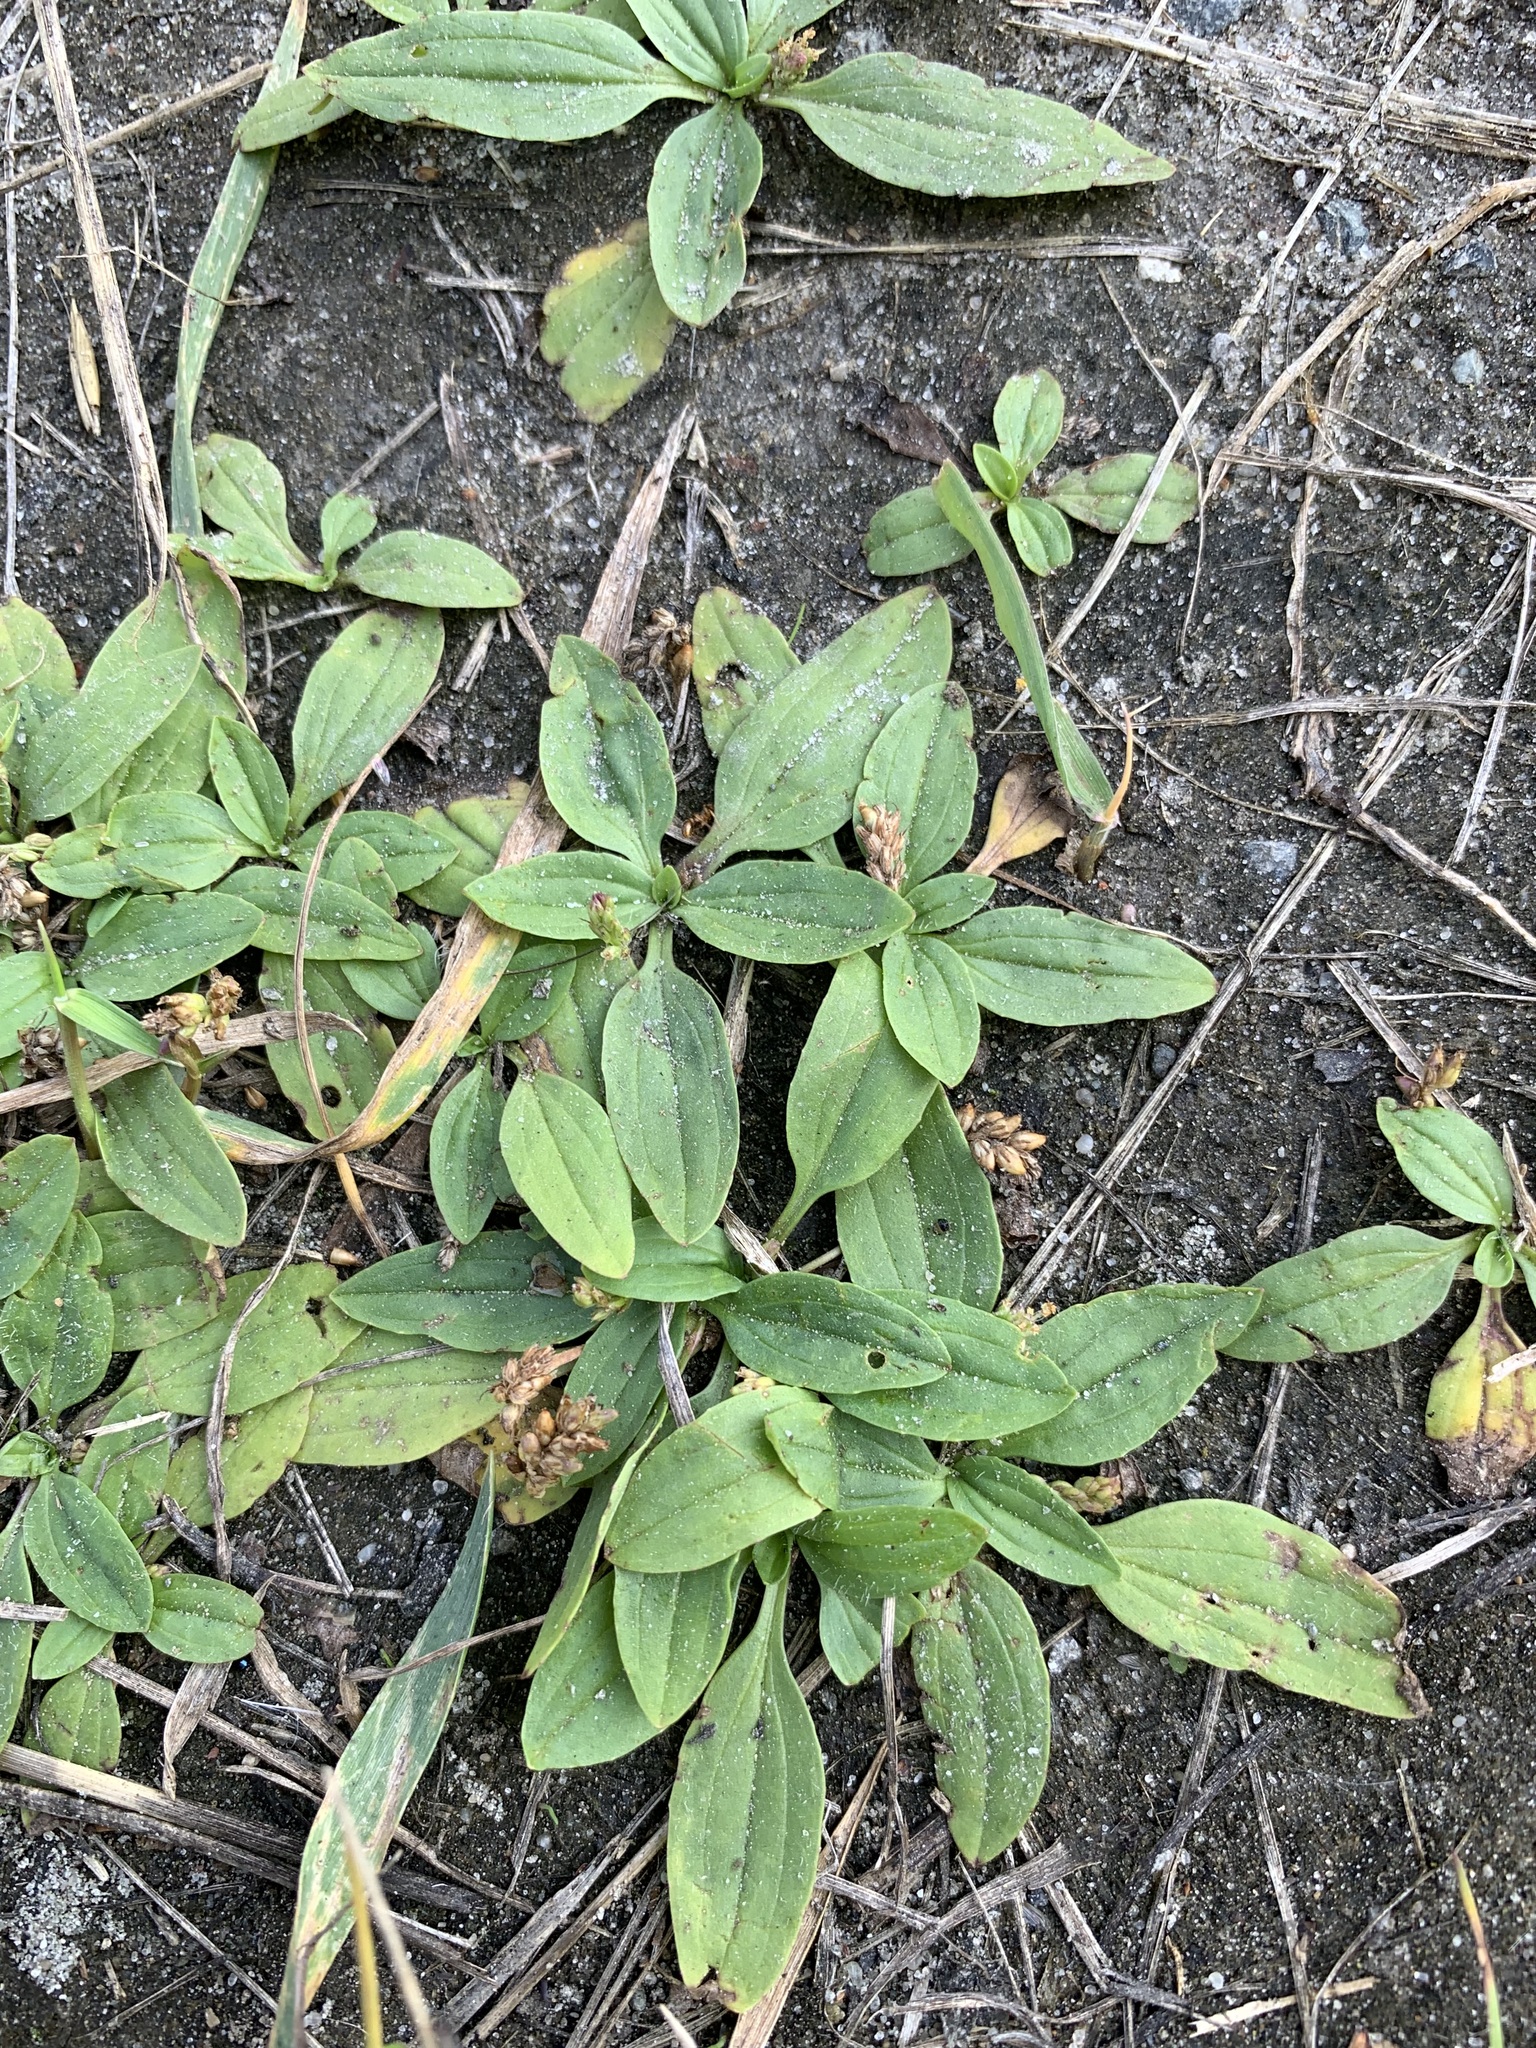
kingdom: Plantae
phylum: Tracheophyta
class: Magnoliopsida
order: Lamiales
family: Plantaginaceae
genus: Plantago
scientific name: Plantago depressa
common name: Depressed plantain
